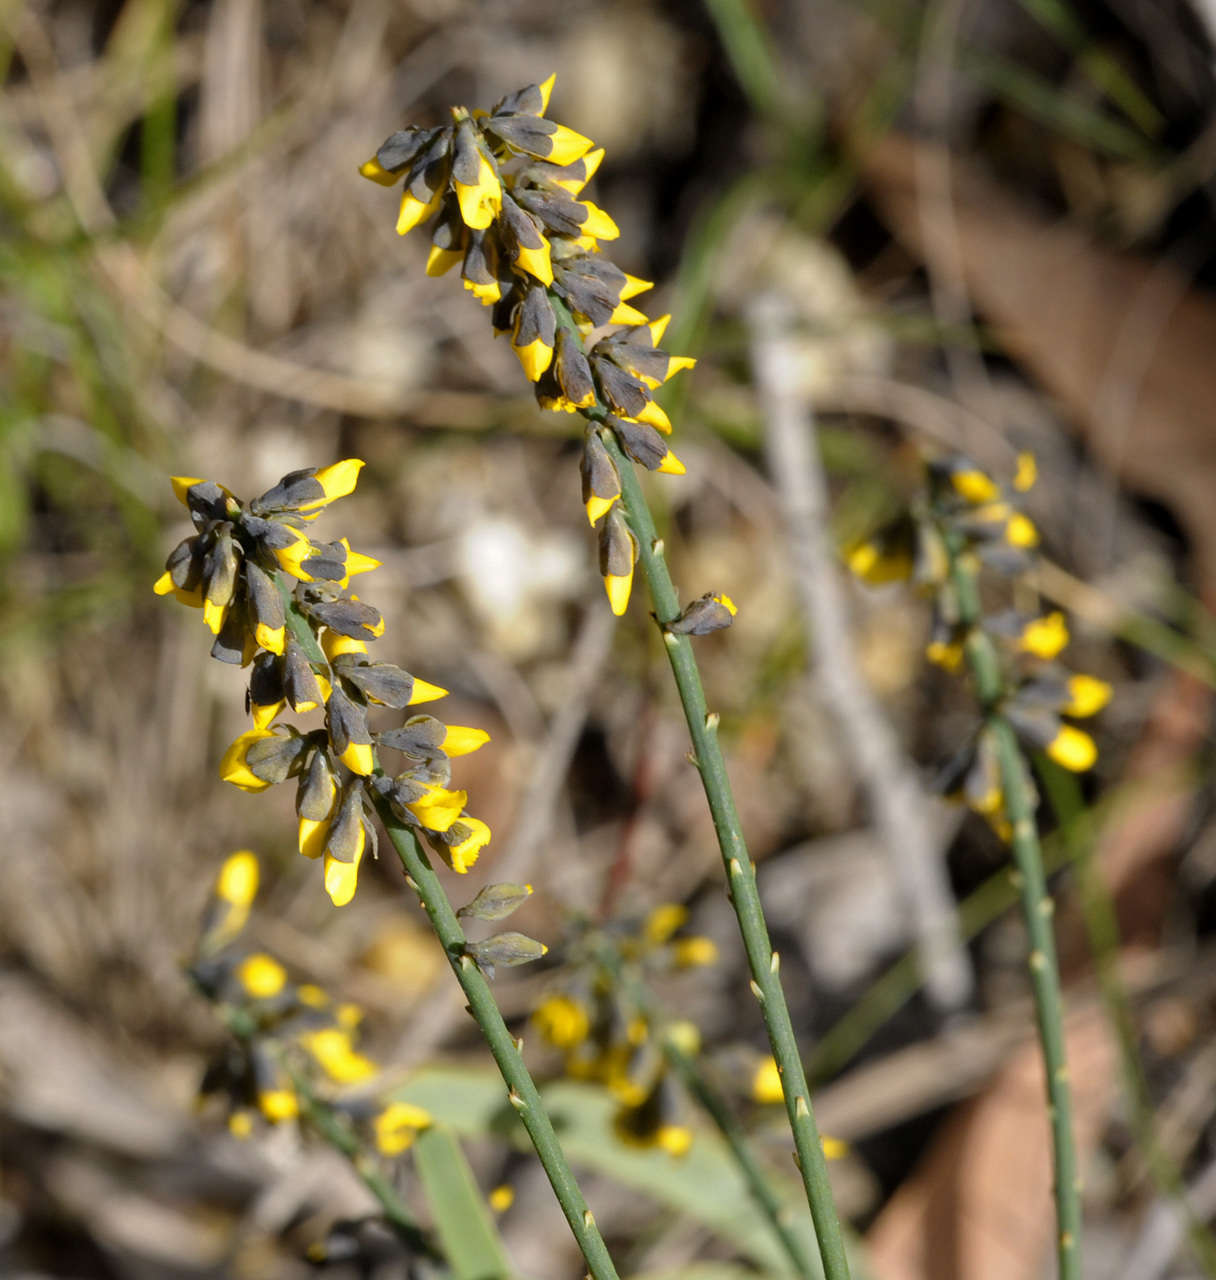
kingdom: Plantae
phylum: Tracheophyta
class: Magnoliopsida
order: Fabales
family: Fabaceae
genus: Sphaerolobium
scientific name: Sphaerolobium minus
